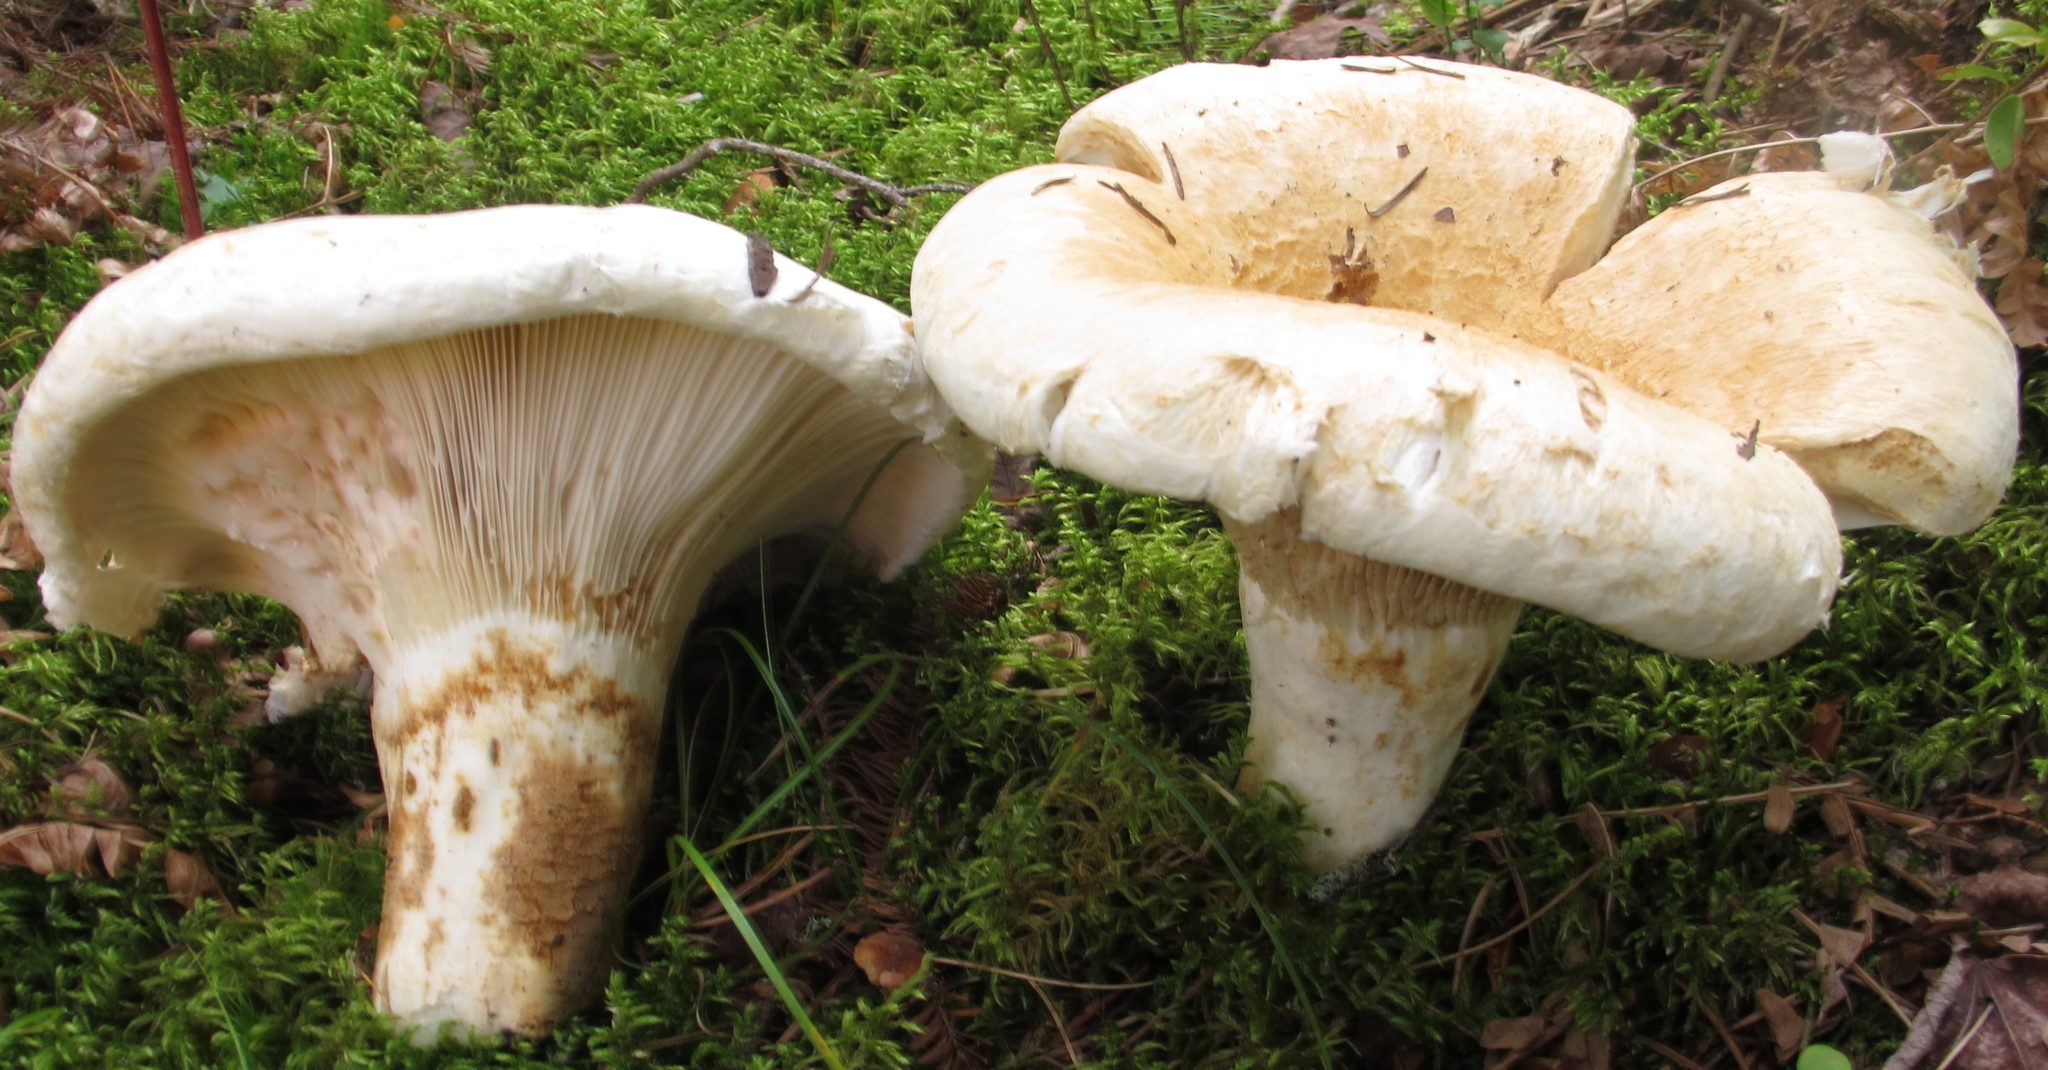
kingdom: Fungi
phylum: Basidiomycota
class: Agaricomycetes
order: Russulales
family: Russulaceae
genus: Lactifluus
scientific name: Lactifluus
